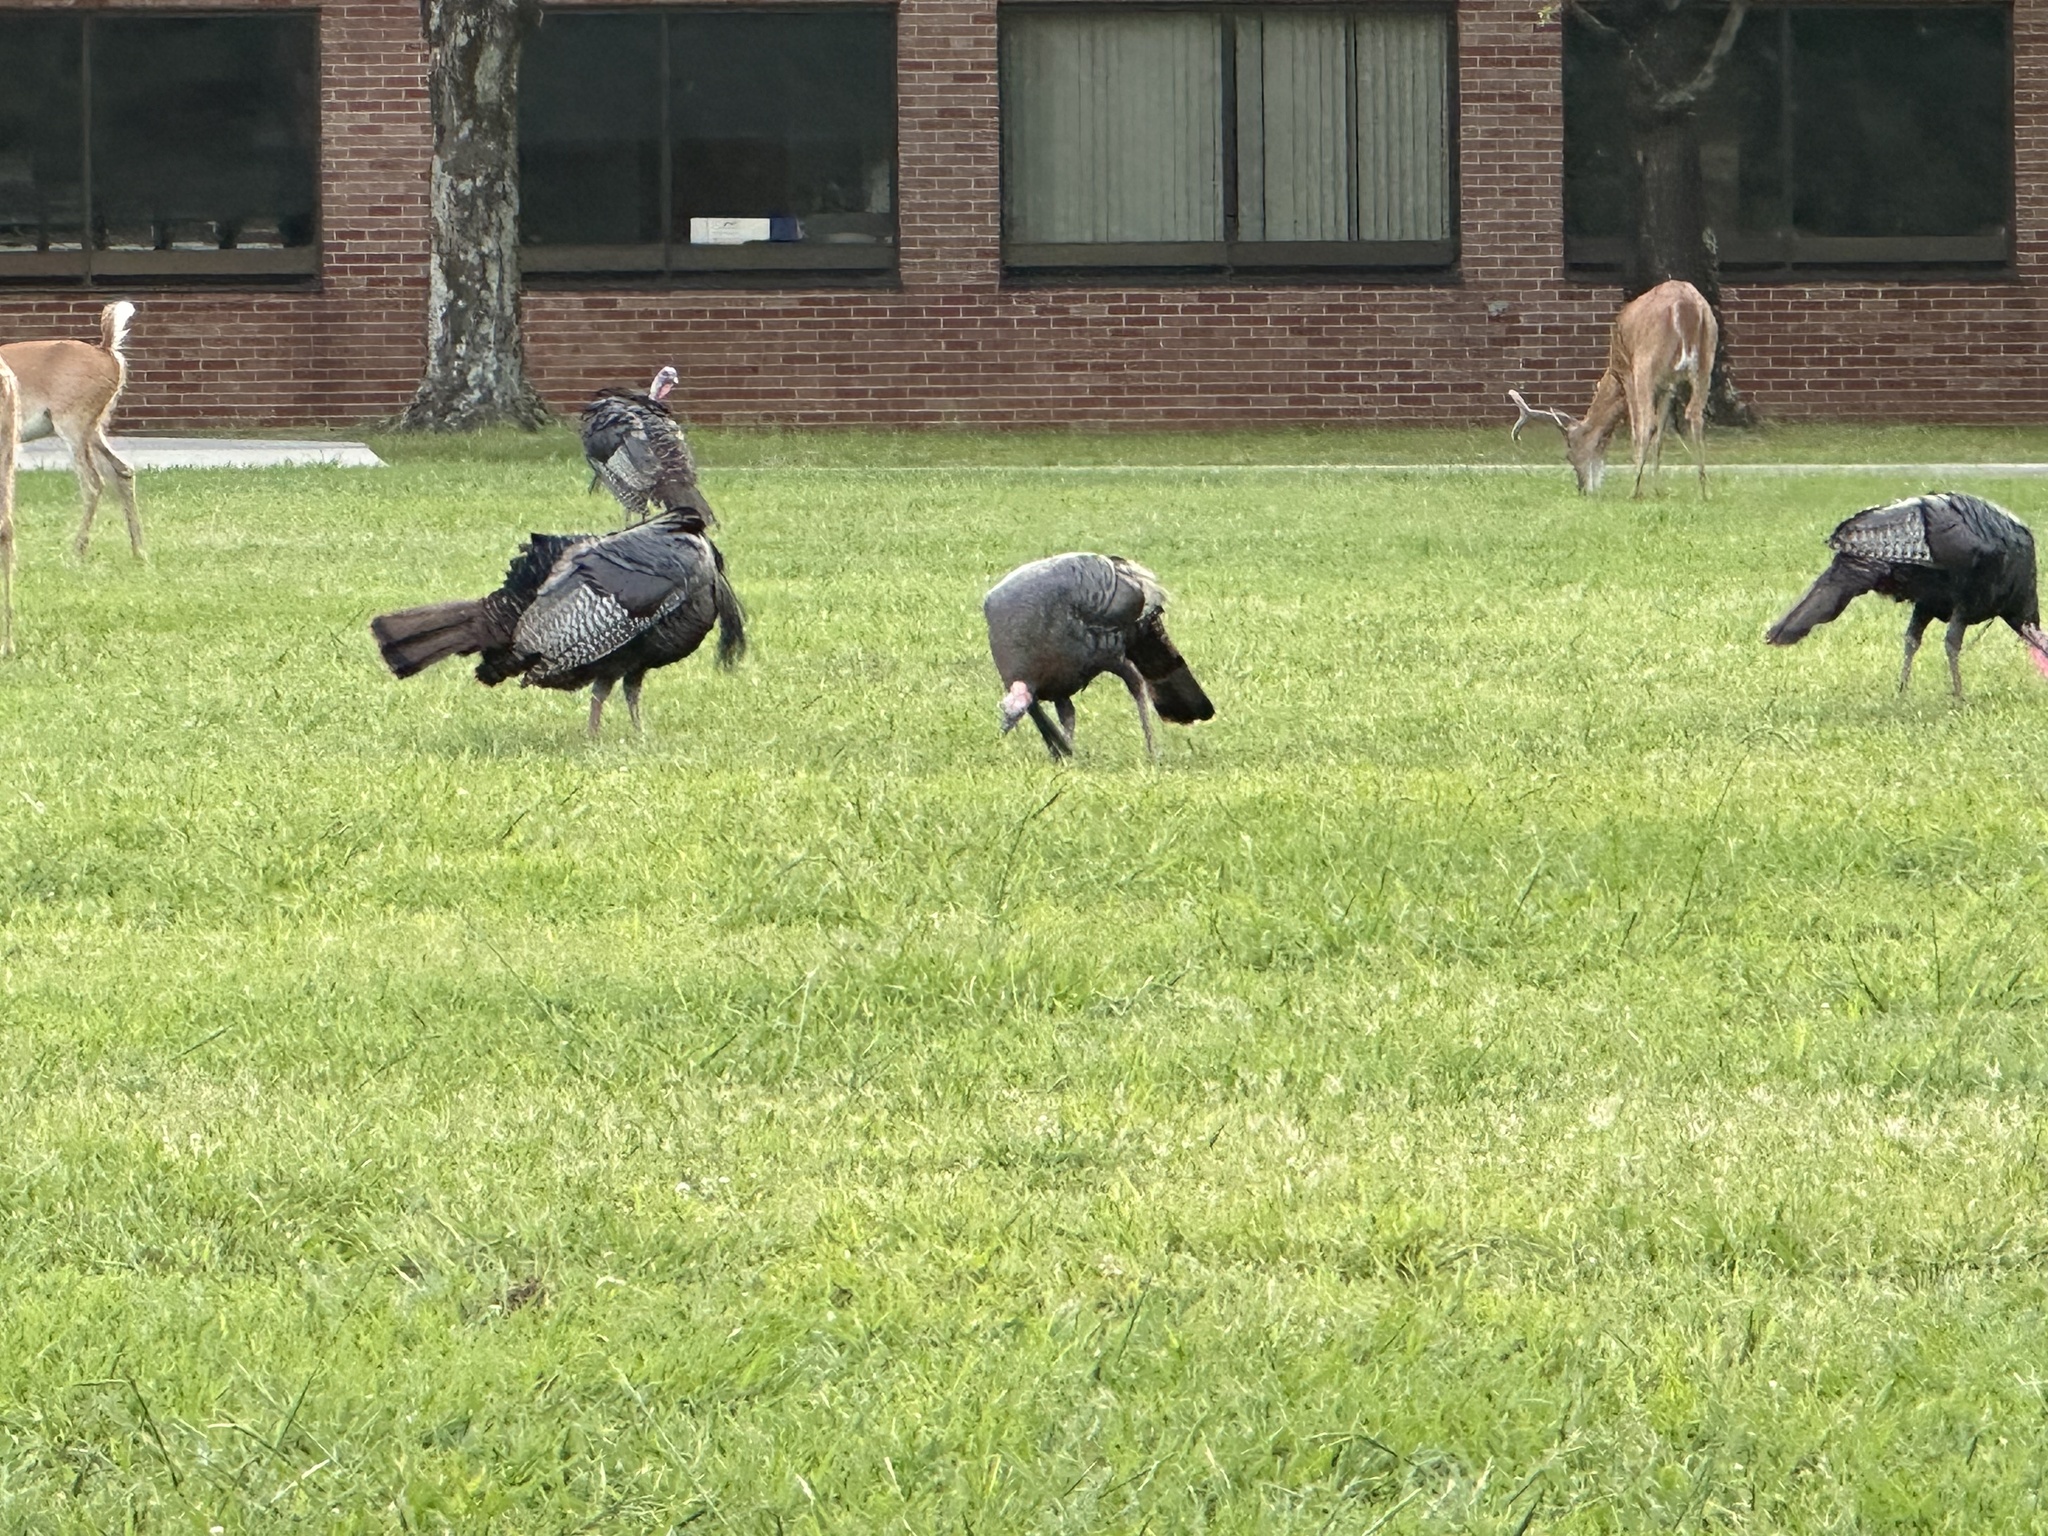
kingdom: Animalia
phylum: Chordata
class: Aves
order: Galliformes
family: Phasianidae
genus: Meleagris
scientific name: Meleagris gallopavo
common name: Wild turkey
